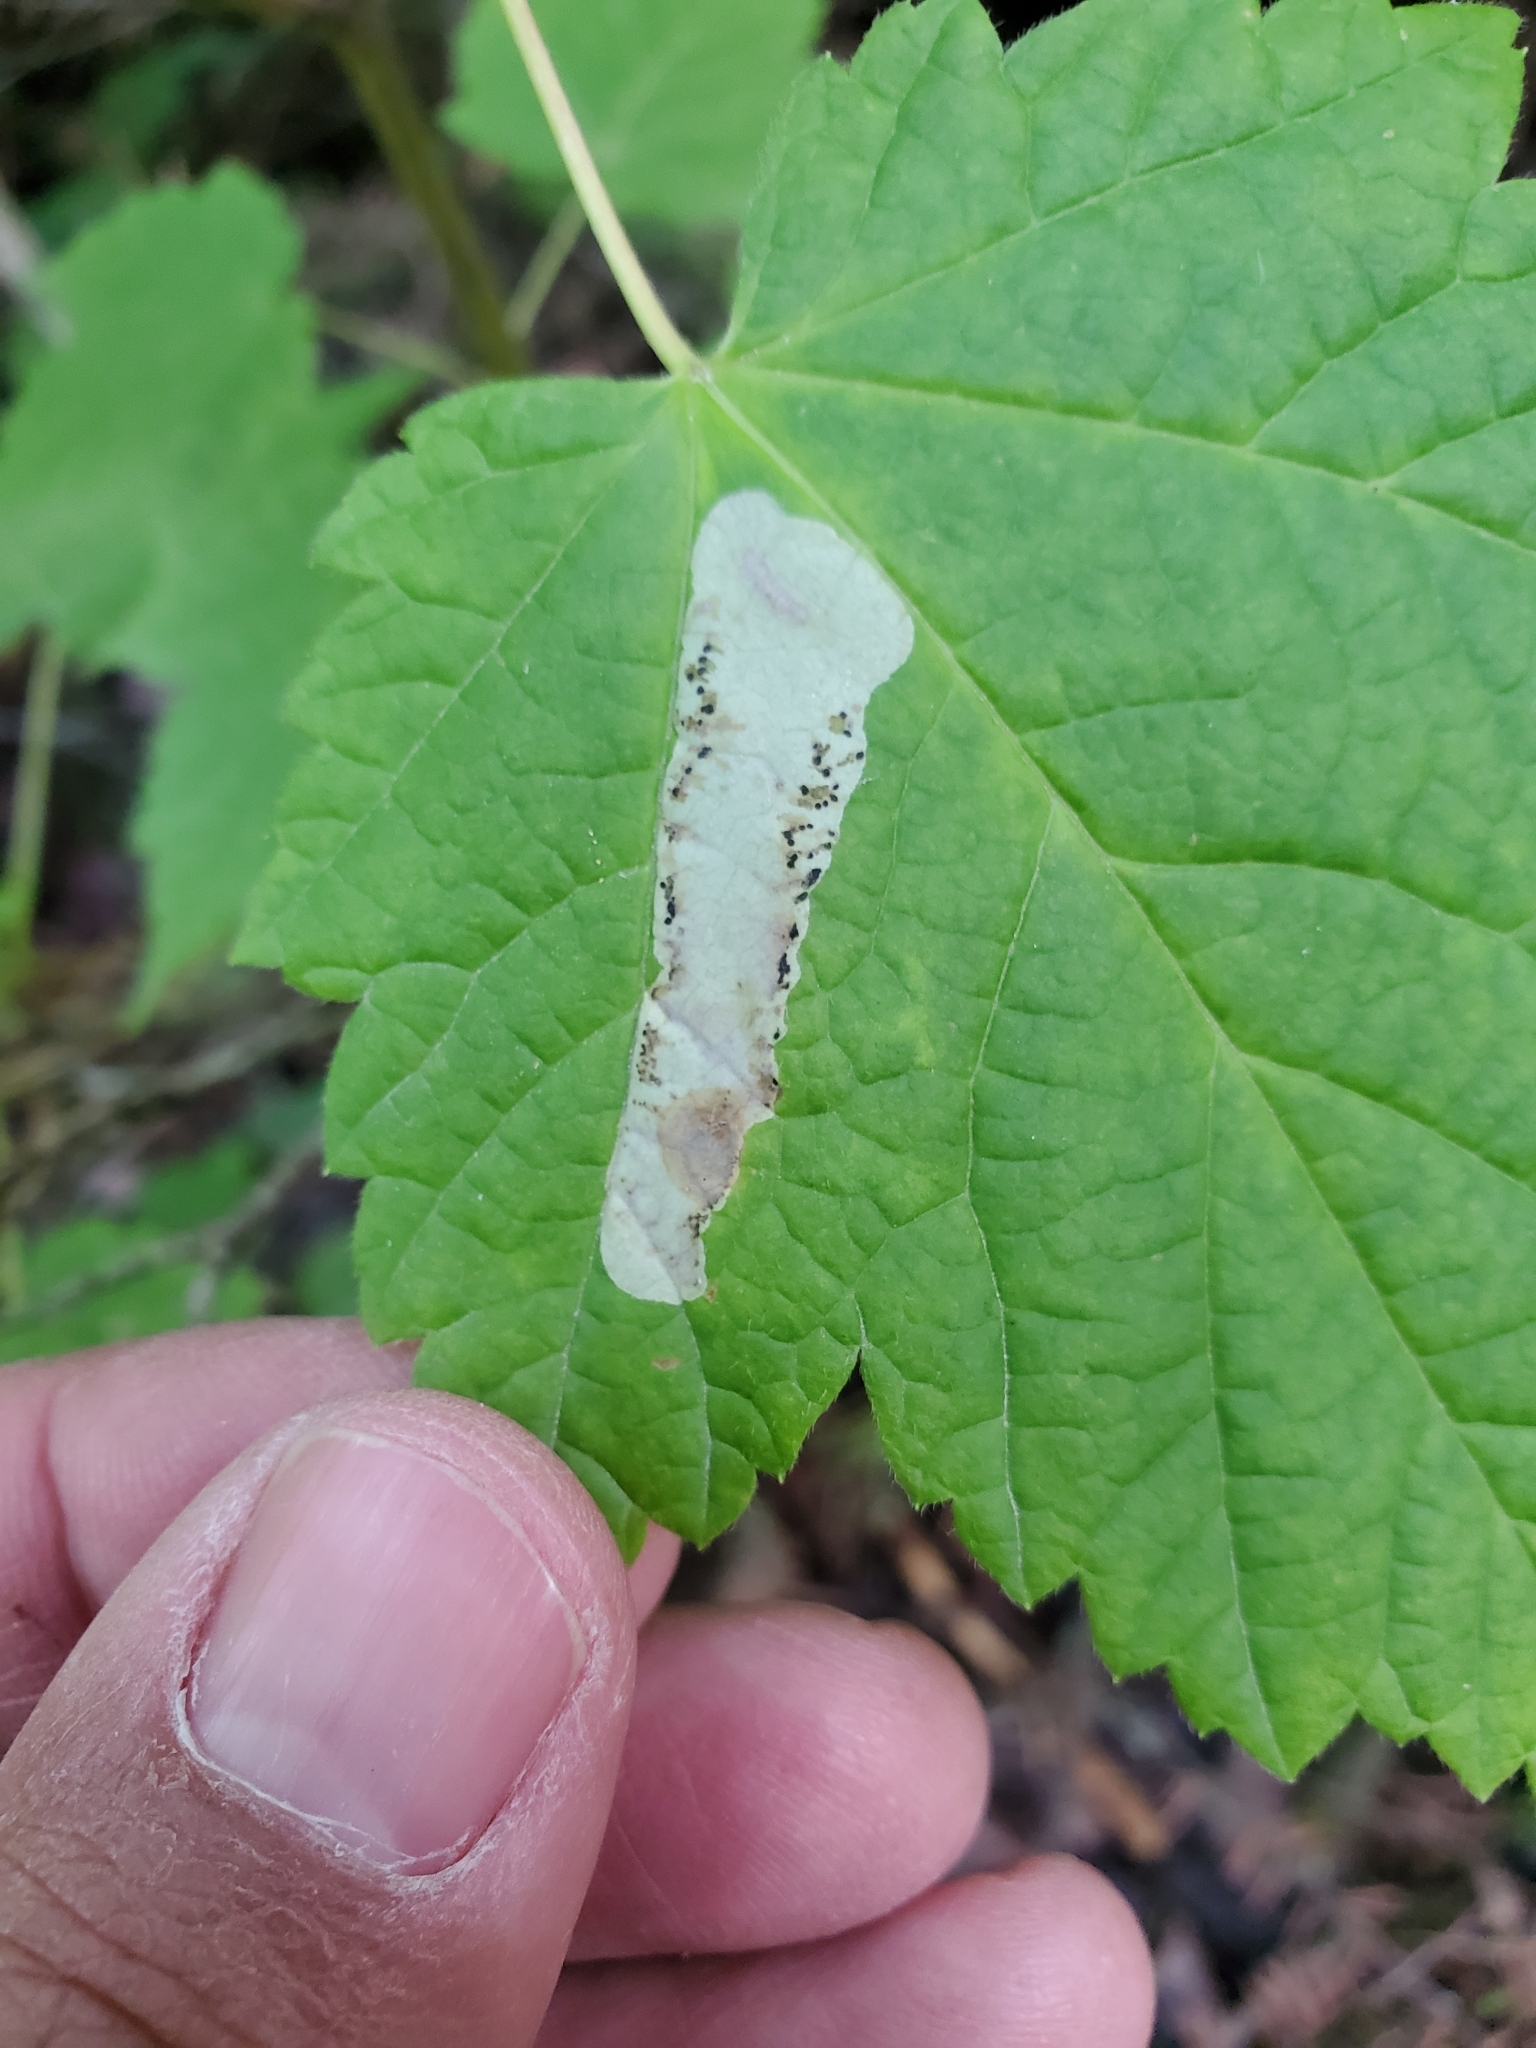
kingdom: Animalia
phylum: Arthropoda
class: Insecta
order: Lepidoptera
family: Gracillariidae
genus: Cameraria
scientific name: Cameraria aceriella
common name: Maple leafblotch miner
